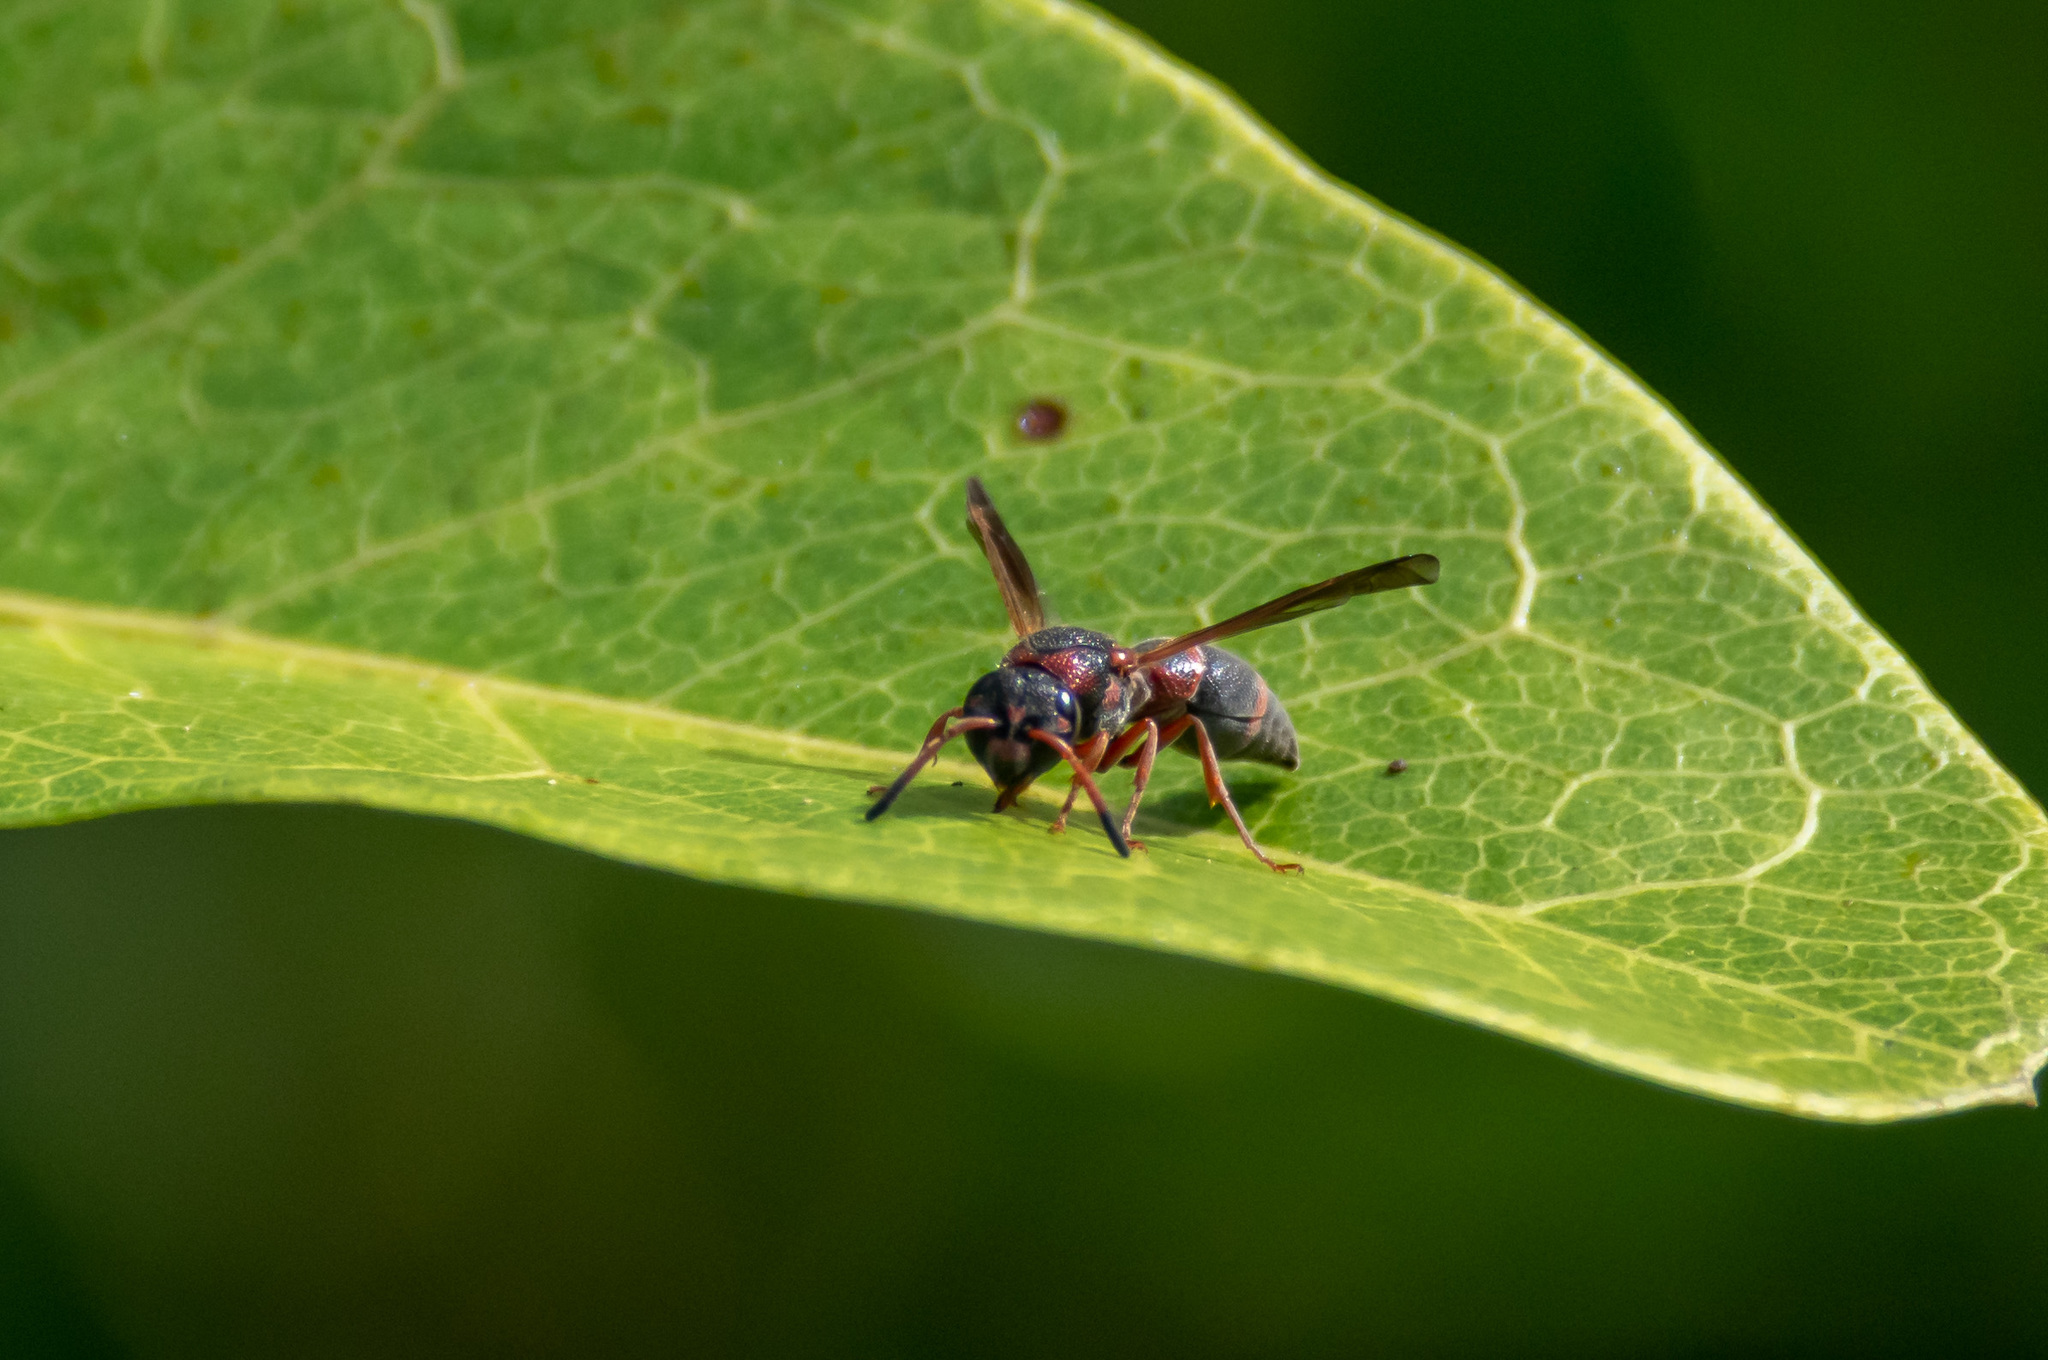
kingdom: Animalia
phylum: Arthropoda
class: Insecta
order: Hymenoptera
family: Eumenidae
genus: Pachodynerus
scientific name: Pachodynerus erynnis
